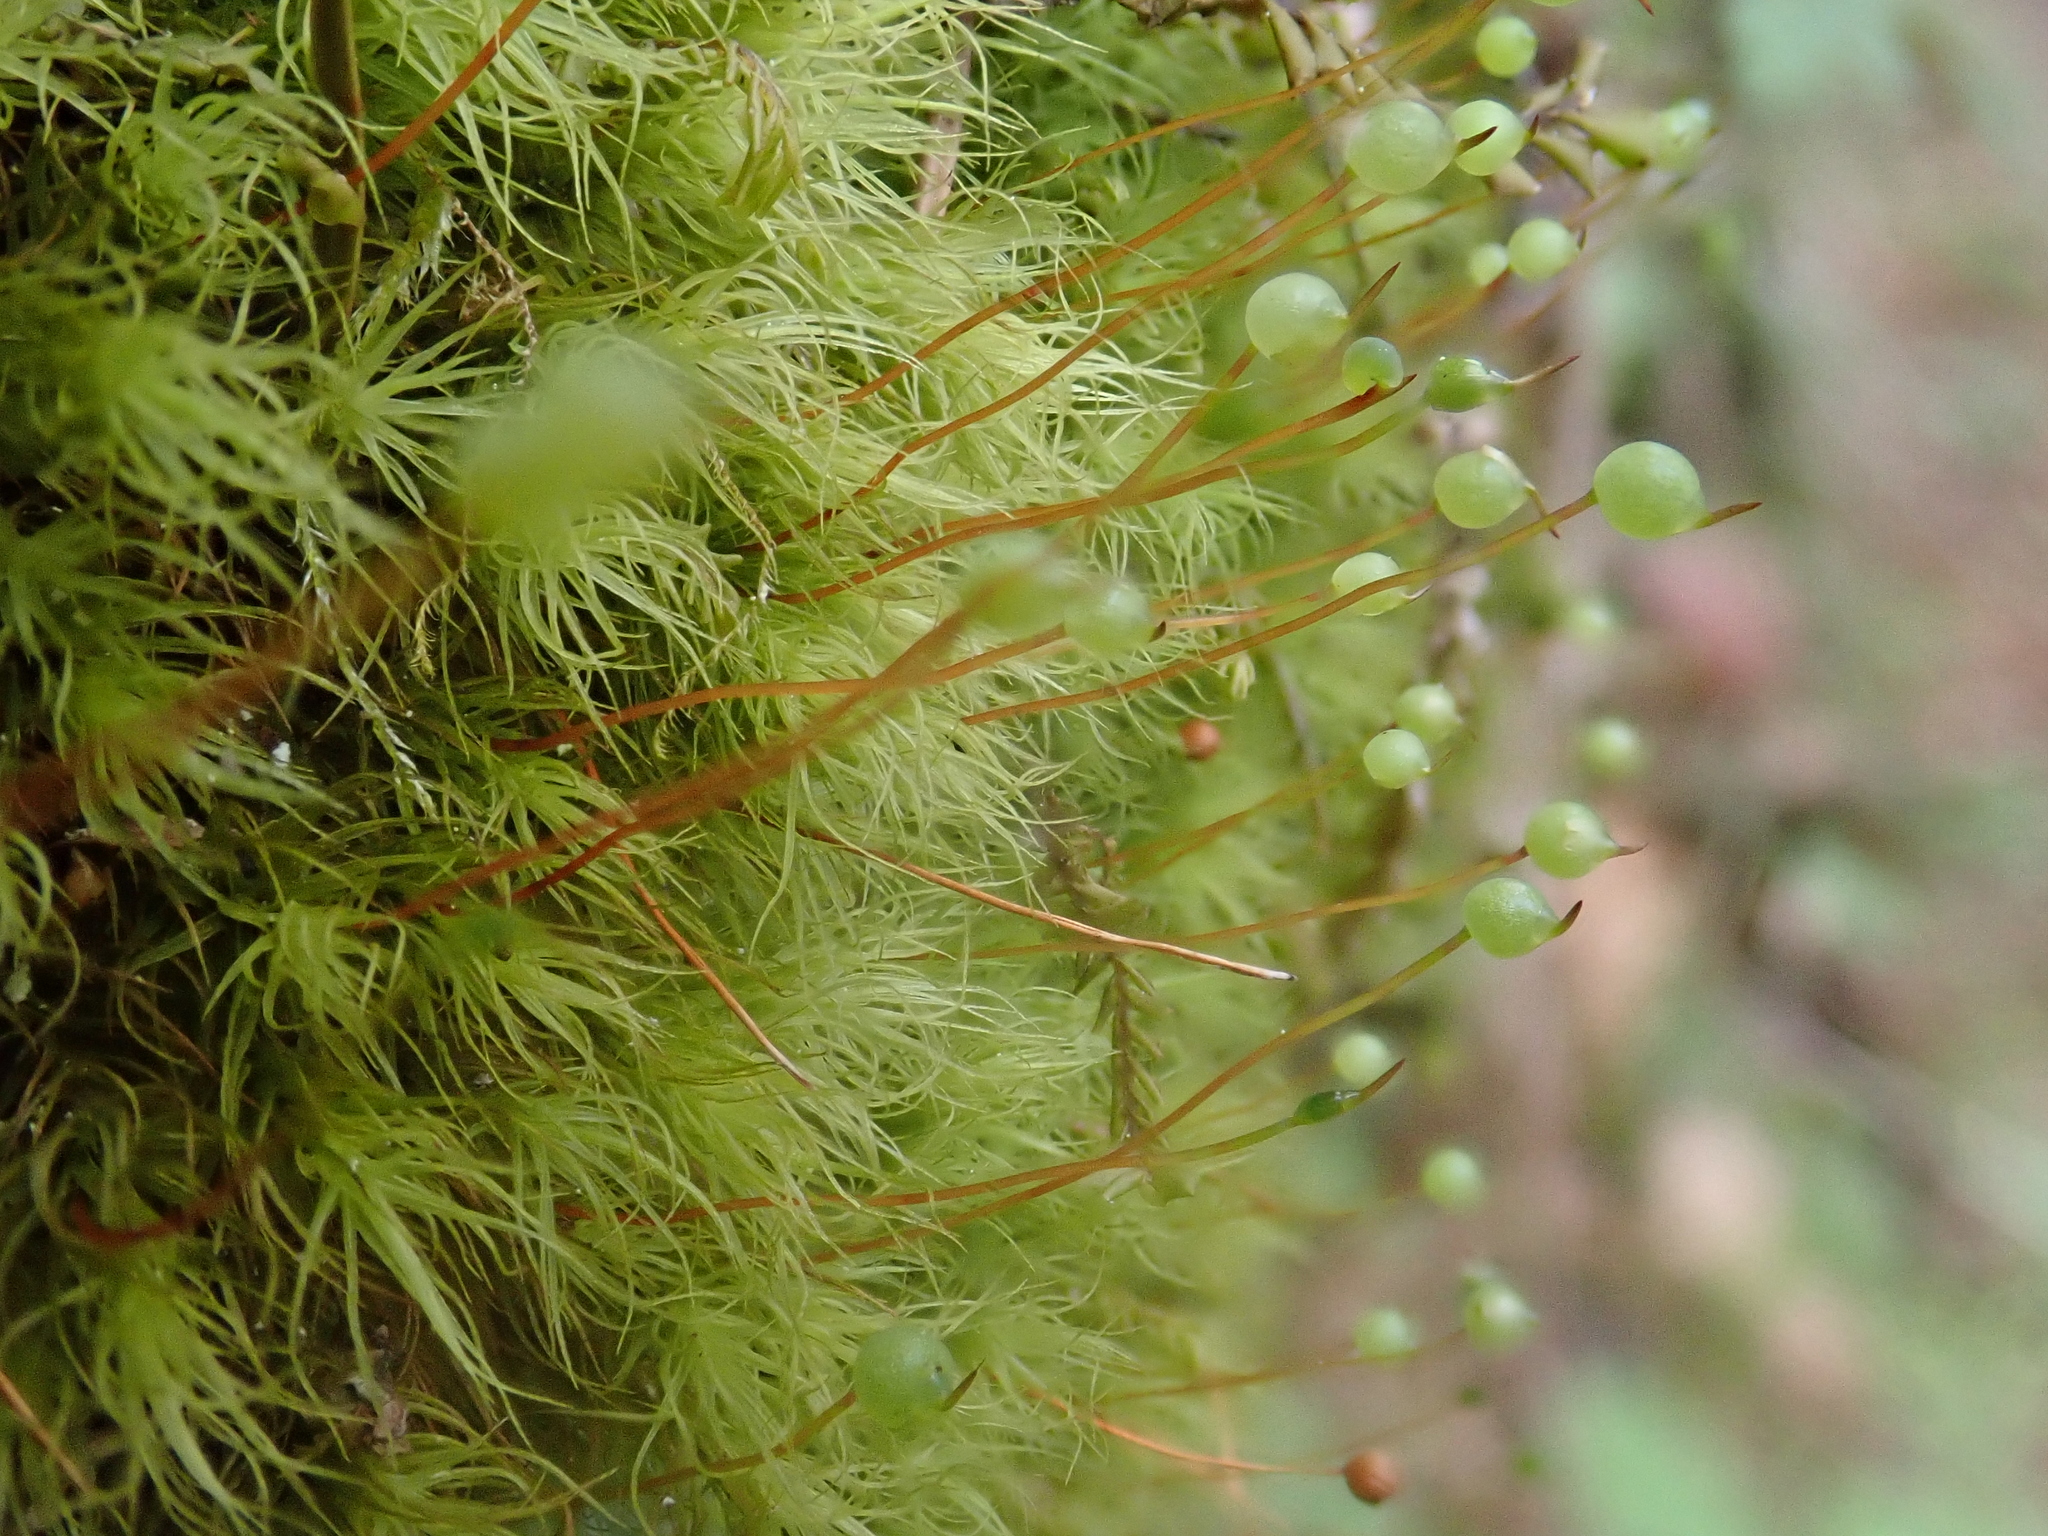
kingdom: Plantae
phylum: Bryophyta
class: Bryopsida
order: Bartramiales
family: Bartramiaceae
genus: Bartramia
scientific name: Bartramia ithyphylla
